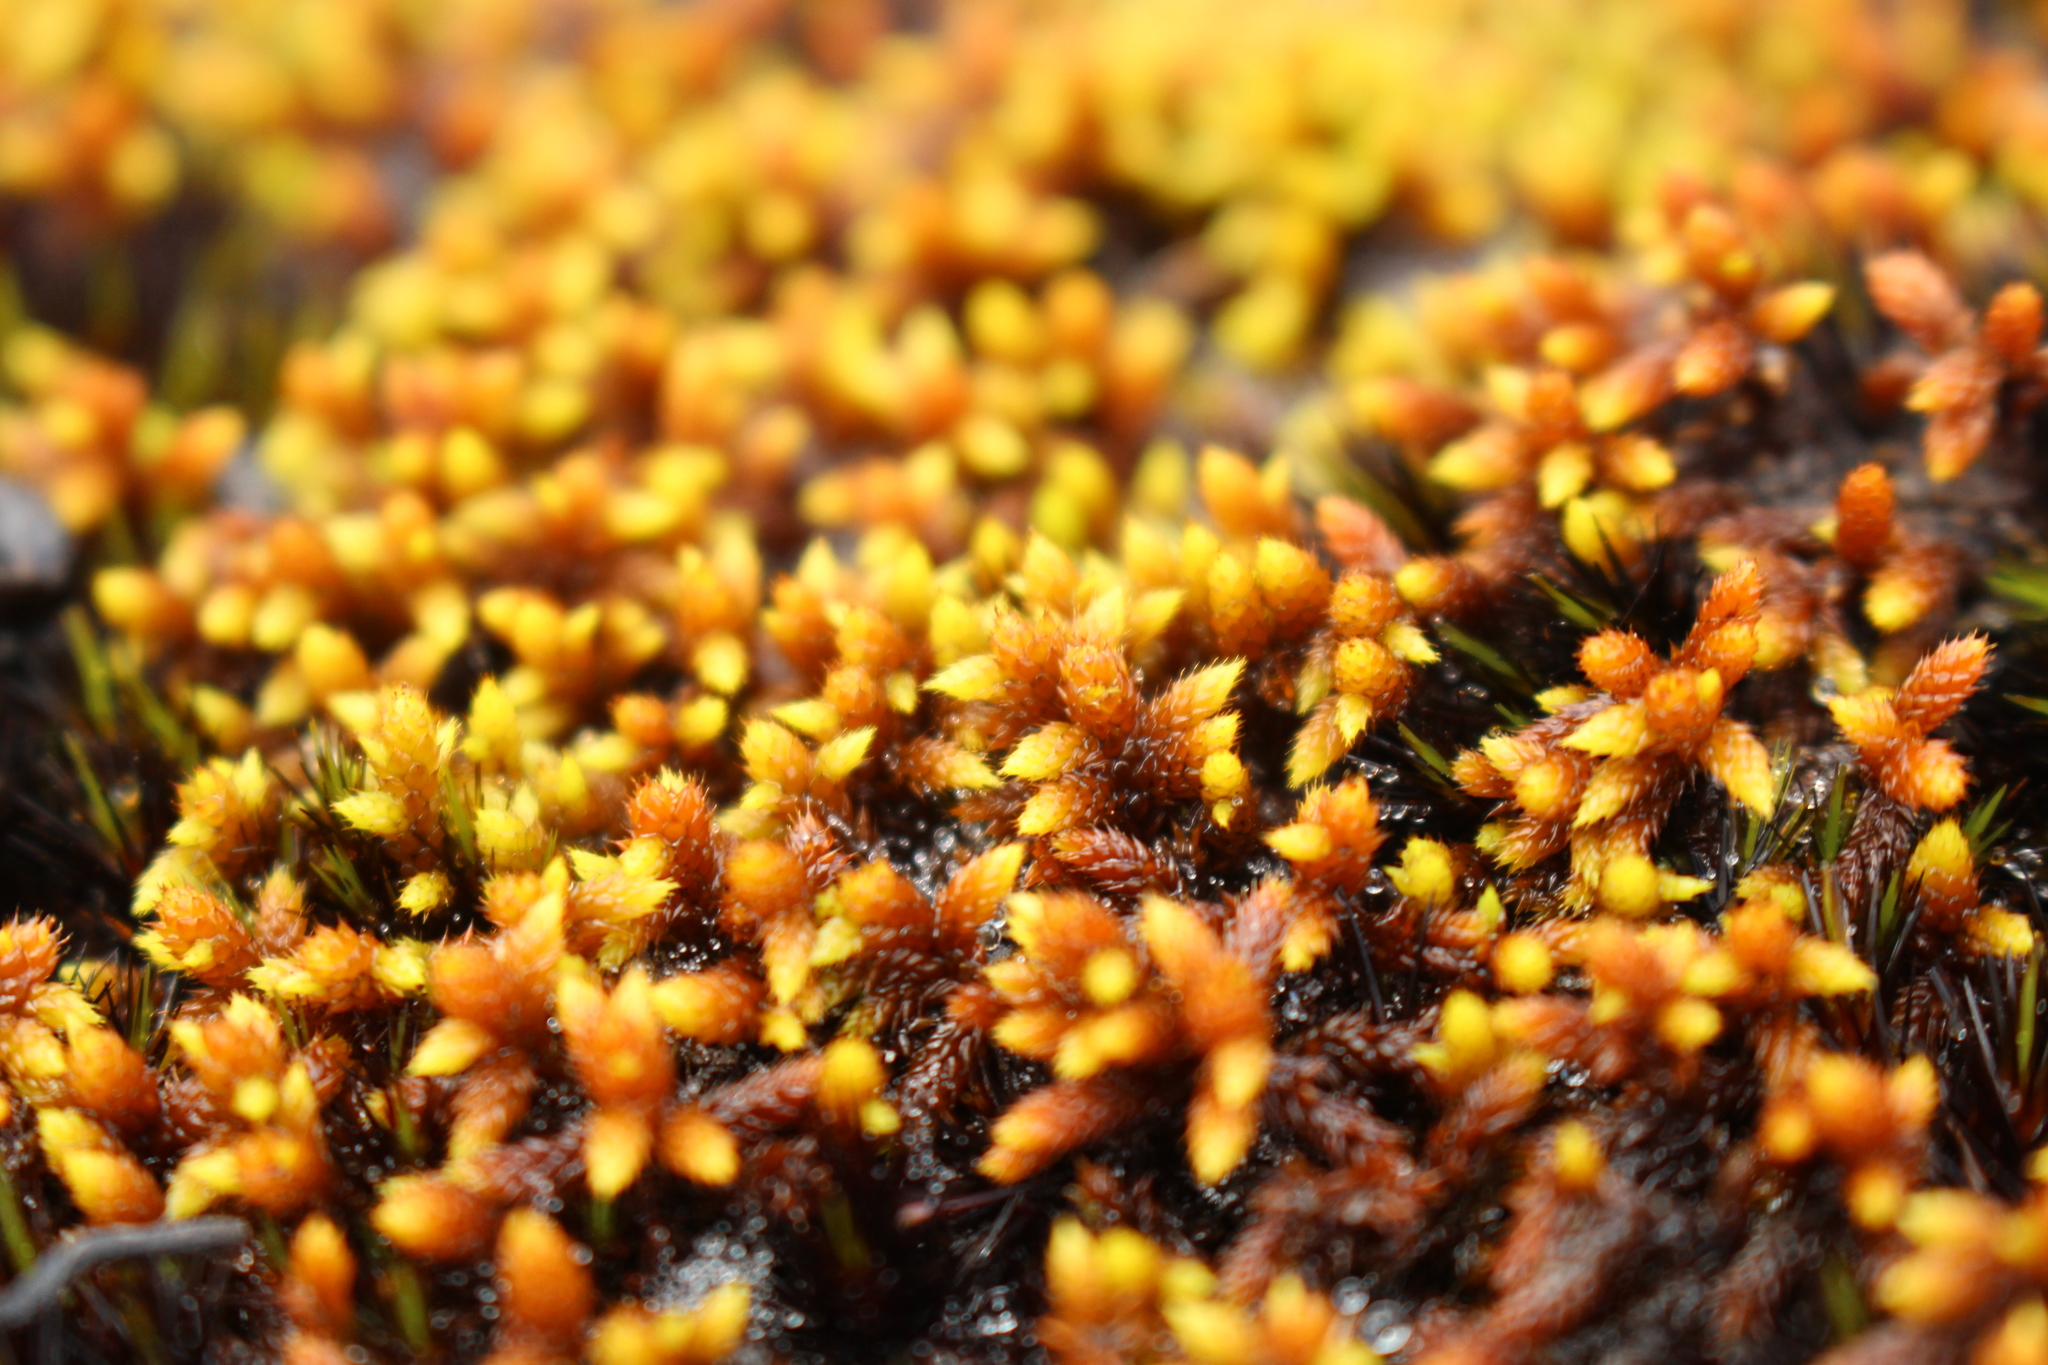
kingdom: Plantae
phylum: Bryophyta
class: Bryopsida
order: Hedwigiales
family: Hedwigiaceae
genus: Rhacocarpus
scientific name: Rhacocarpus purpurascens
